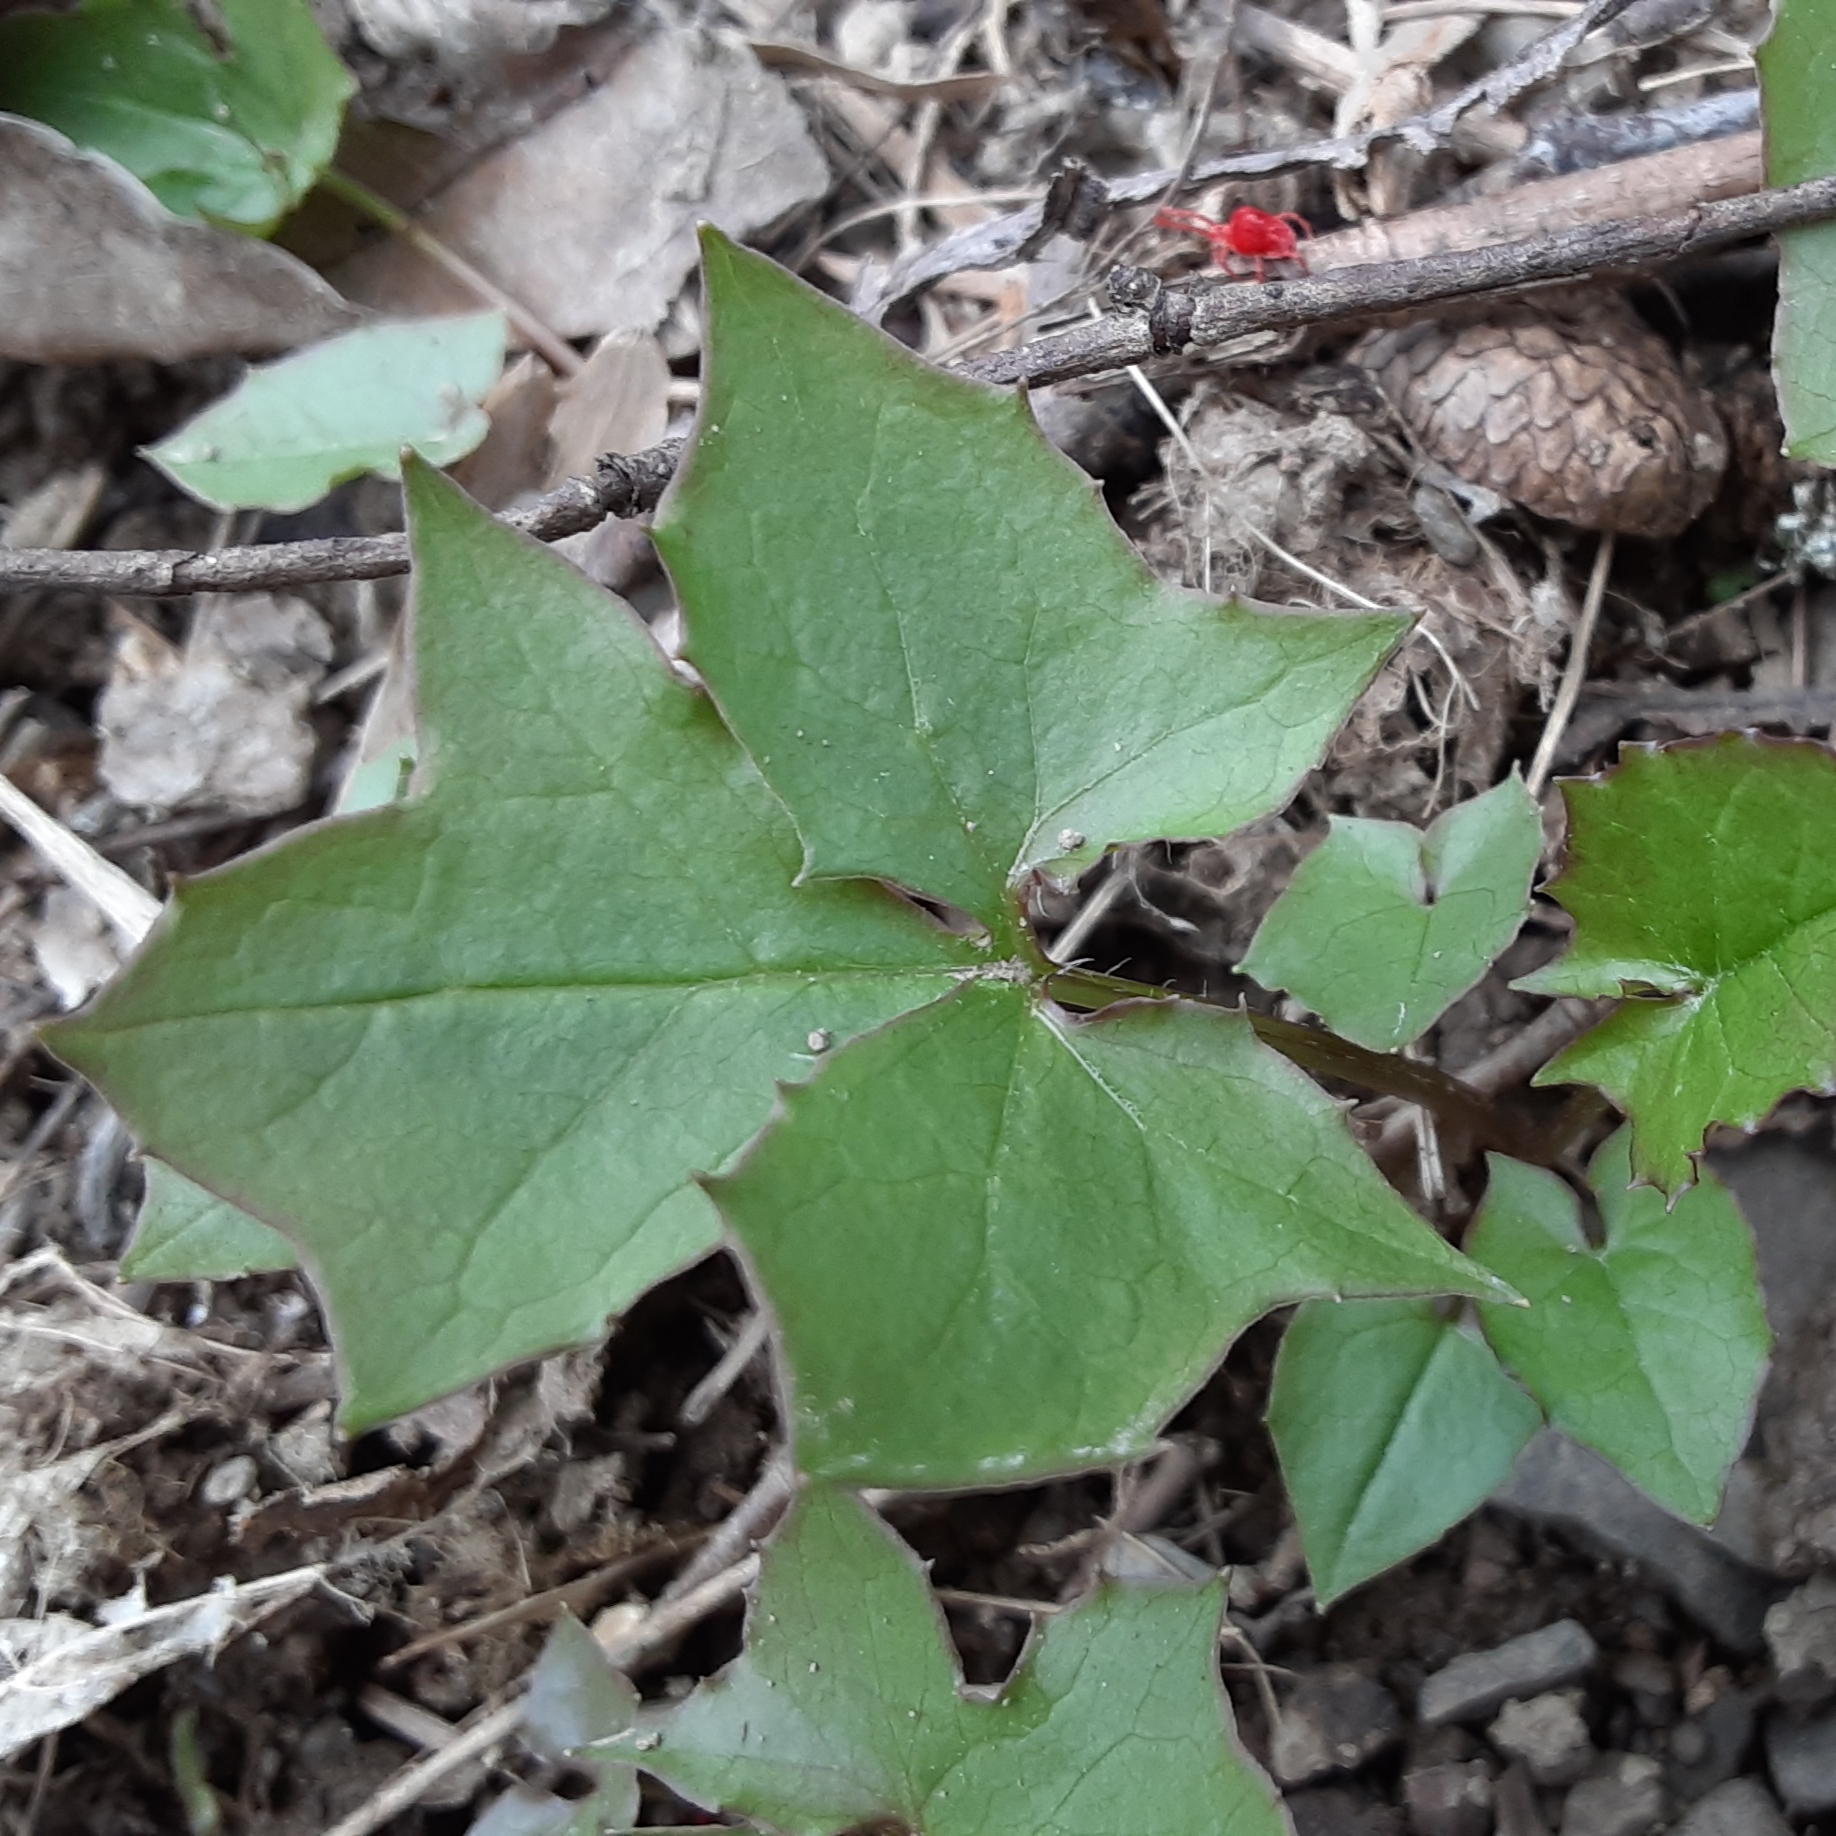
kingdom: Plantae
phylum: Tracheophyta
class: Magnoliopsida
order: Asterales
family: Asteraceae
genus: Nabalus
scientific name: Nabalus
